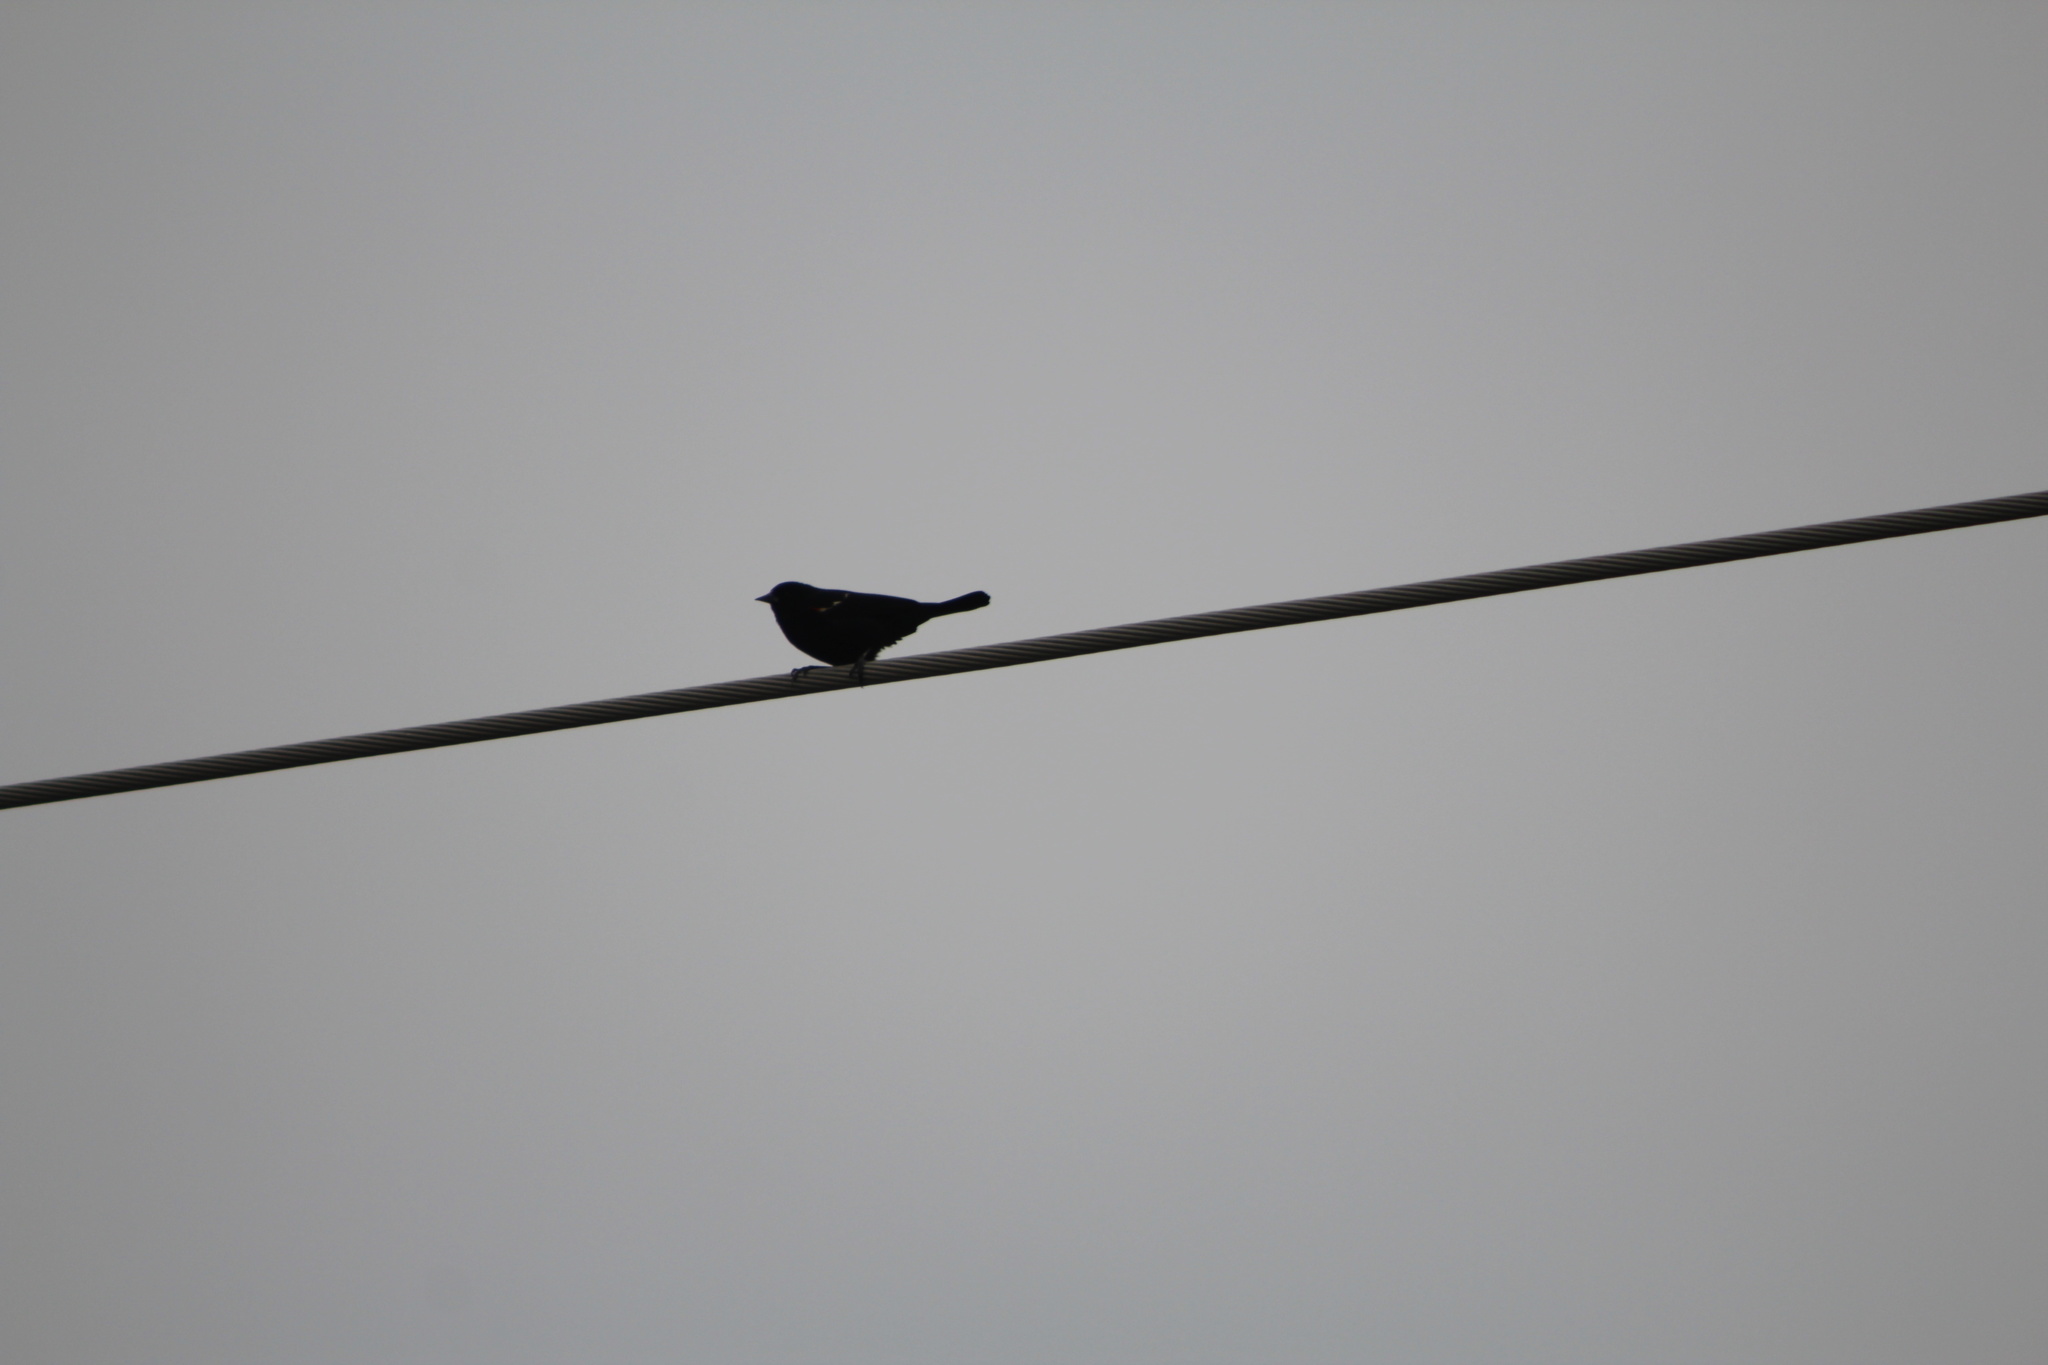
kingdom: Animalia
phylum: Chordata
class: Aves
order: Passeriformes
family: Icteridae
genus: Agelaius
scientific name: Agelaius phoeniceus
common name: Red-winged blackbird
